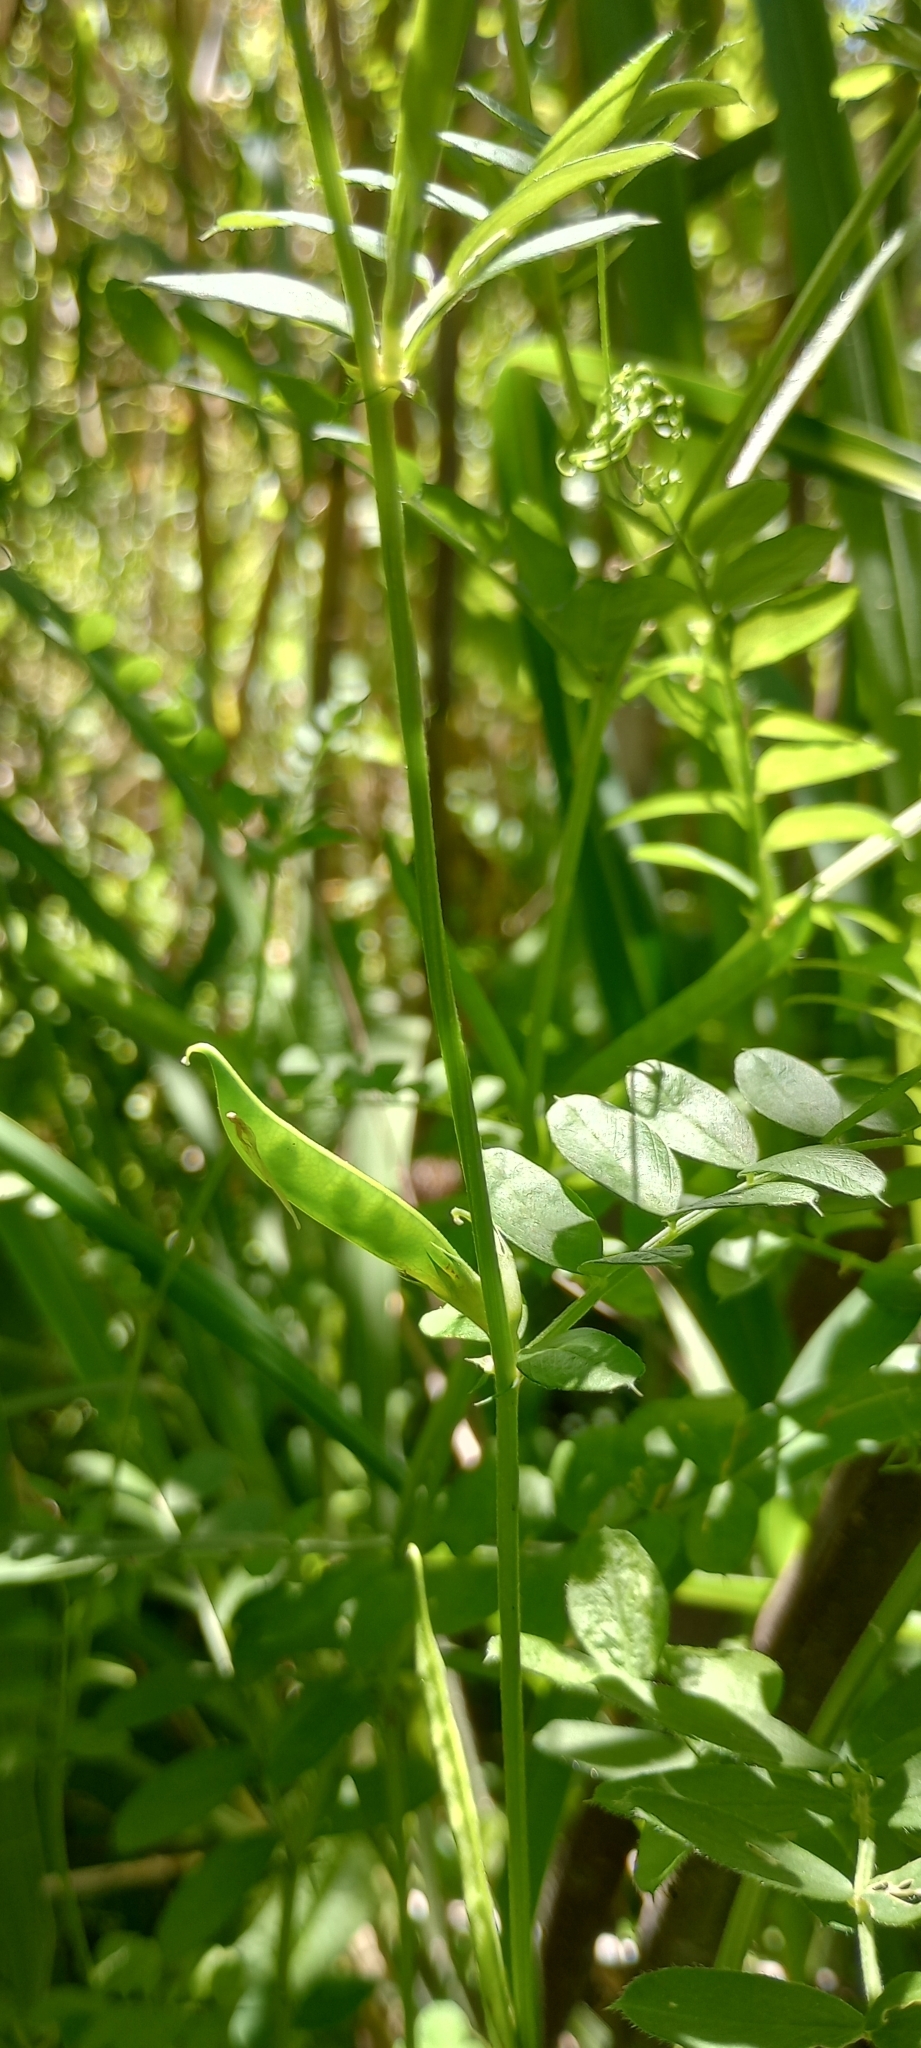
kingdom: Plantae
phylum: Tracheophyta
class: Magnoliopsida
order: Fabales
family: Fabaceae
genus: Vicia
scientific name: Vicia sativa
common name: Garden vetch
